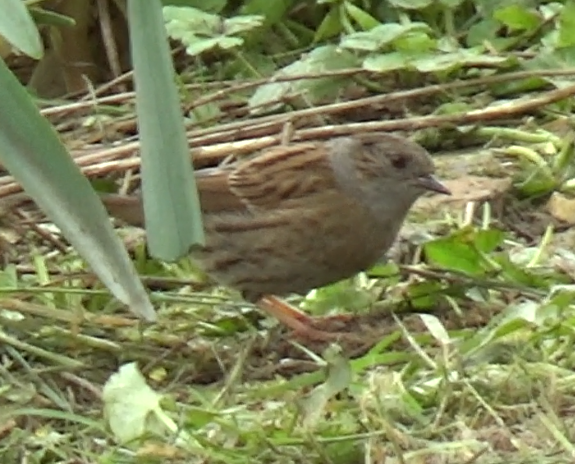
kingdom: Animalia
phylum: Chordata
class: Aves
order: Passeriformes
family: Prunellidae
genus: Prunella
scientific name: Prunella modularis
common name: Dunnock
